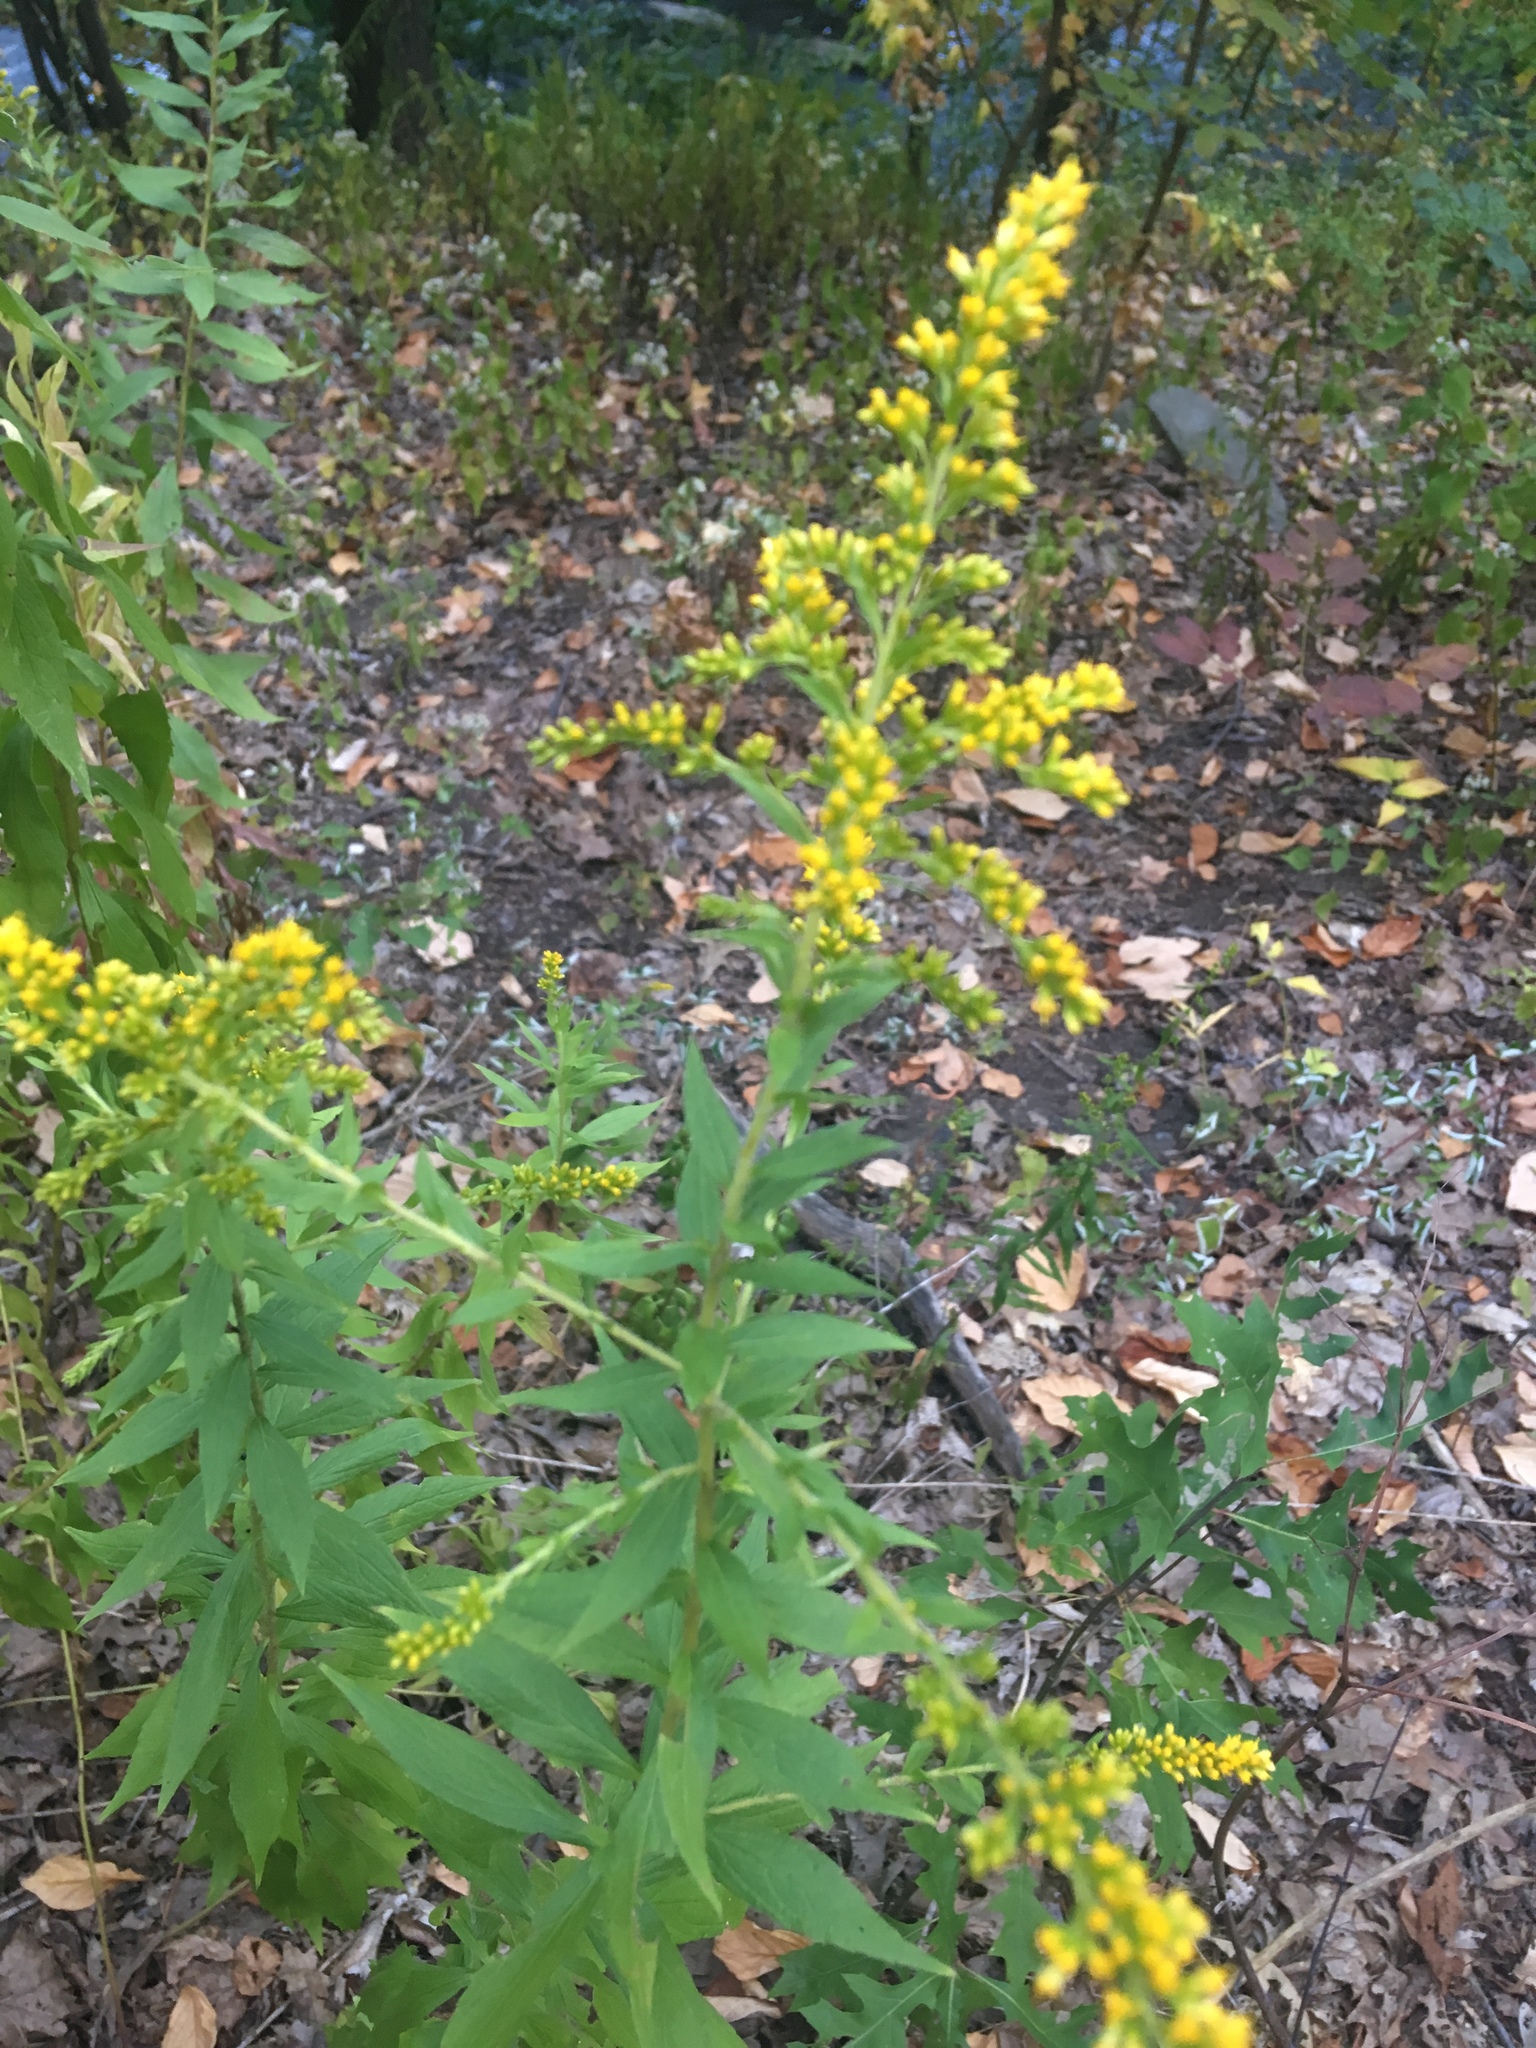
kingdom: Plantae
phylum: Tracheophyta
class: Magnoliopsida
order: Asterales
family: Asteraceae
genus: Solidago
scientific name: Solidago rugosa
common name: Rough-stemmed goldenrod
